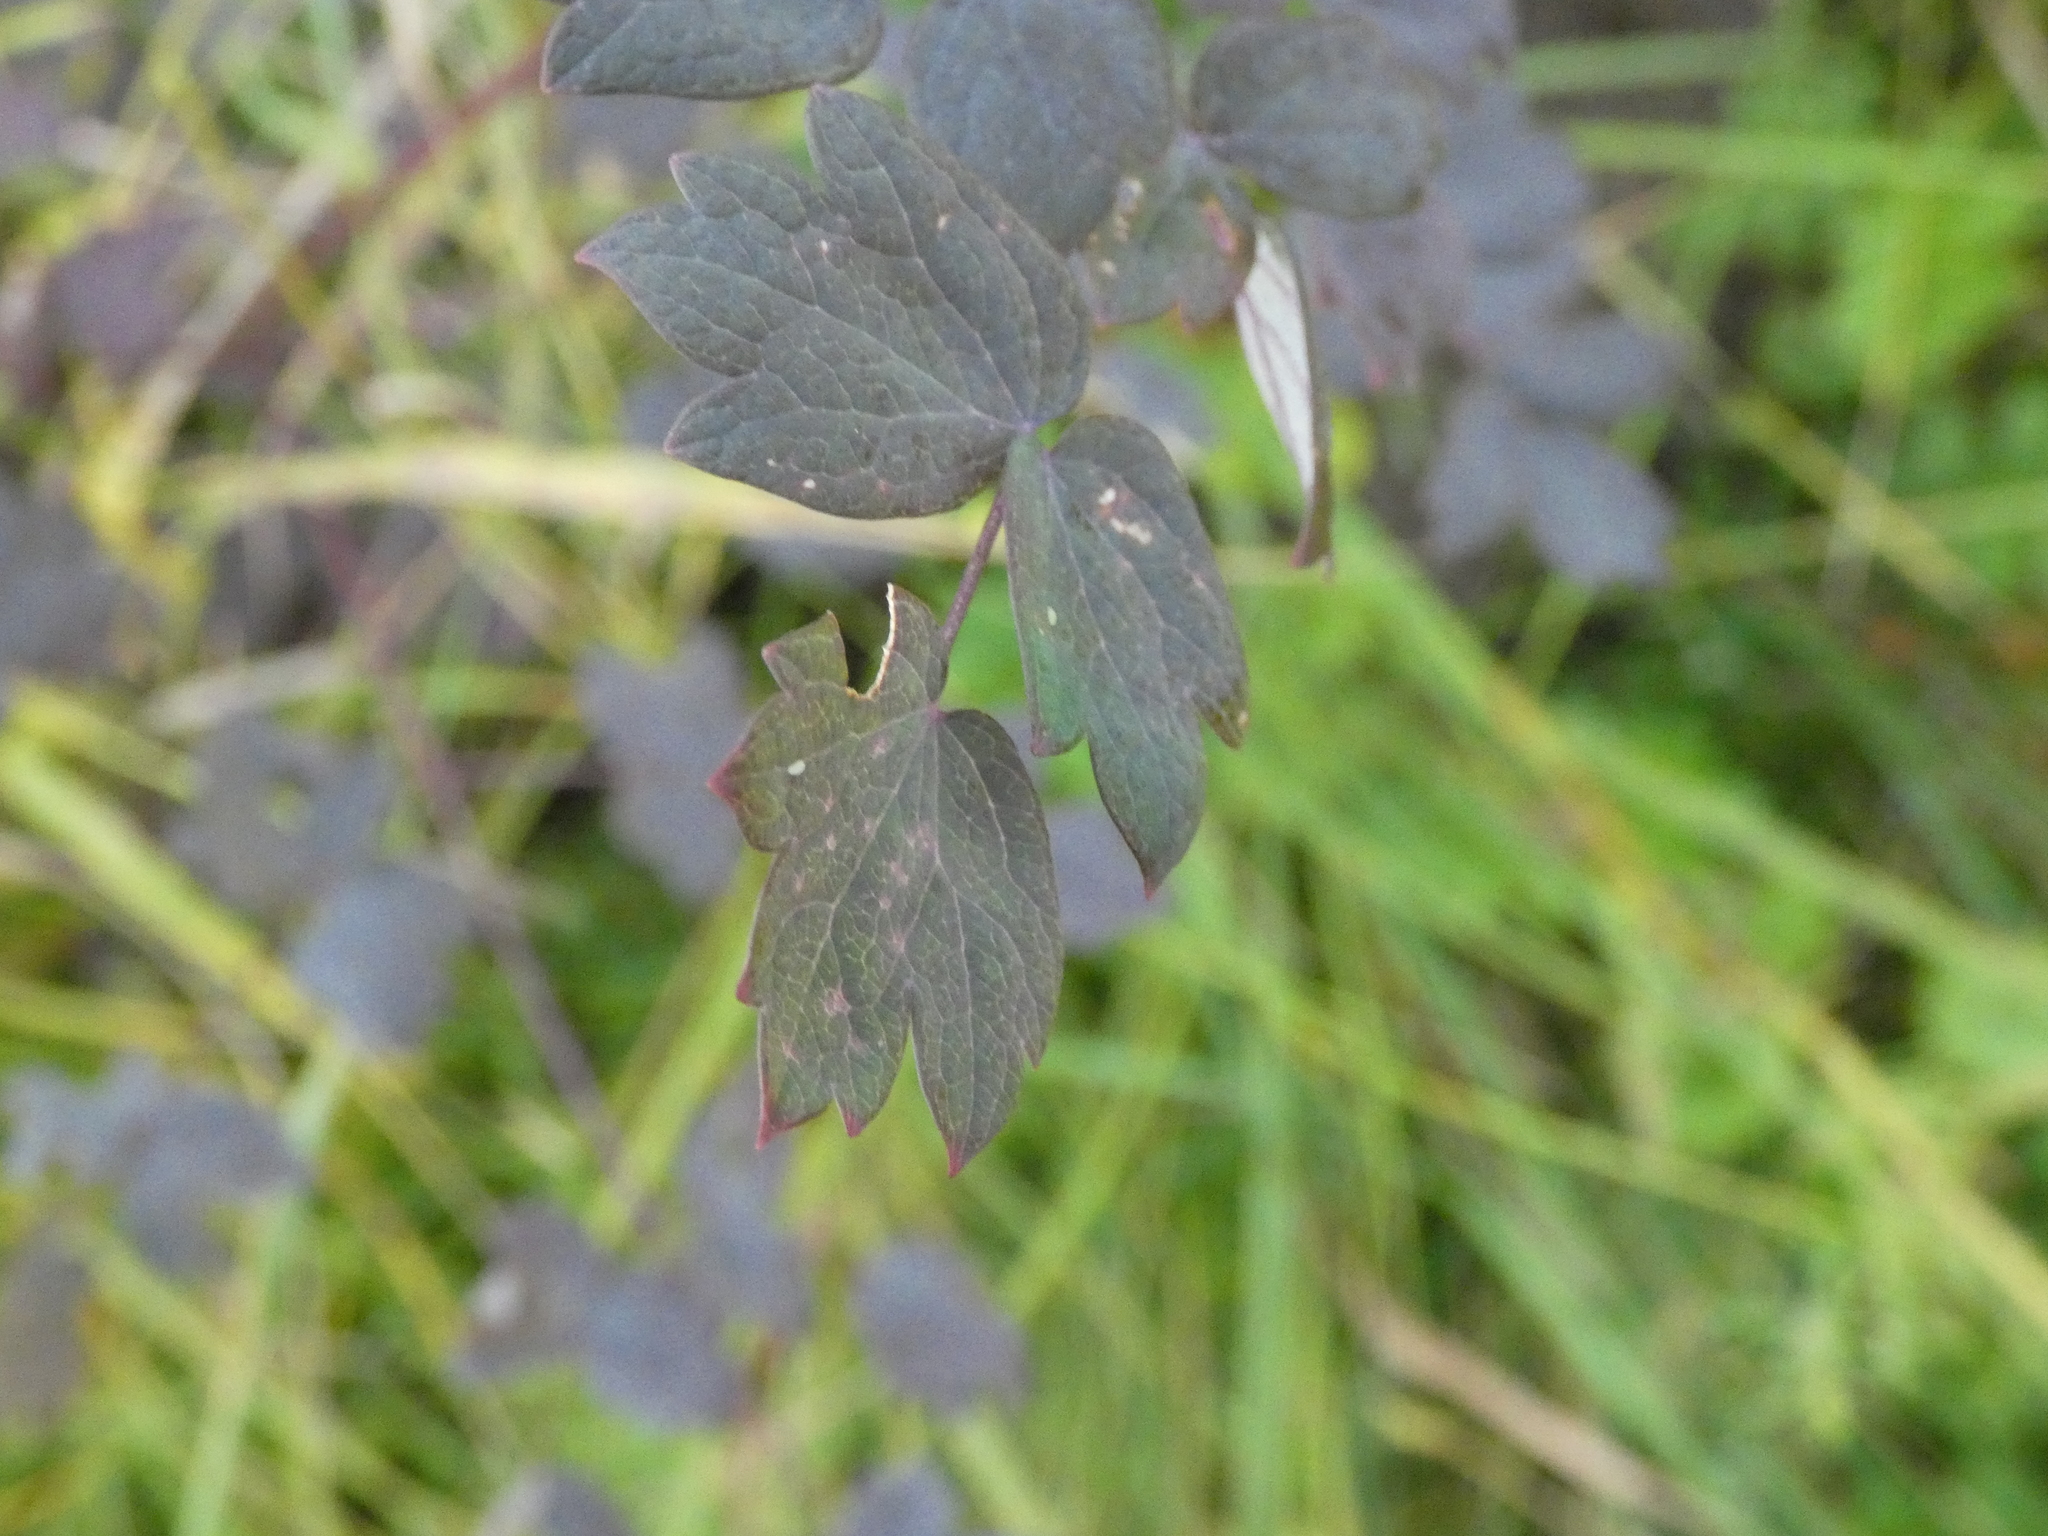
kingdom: Plantae
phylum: Tracheophyta
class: Magnoliopsida
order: Ranunculales
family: Ranunculaceae
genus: Thalictrum
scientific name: Thalictrum minus
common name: Lesser meadow-rue
